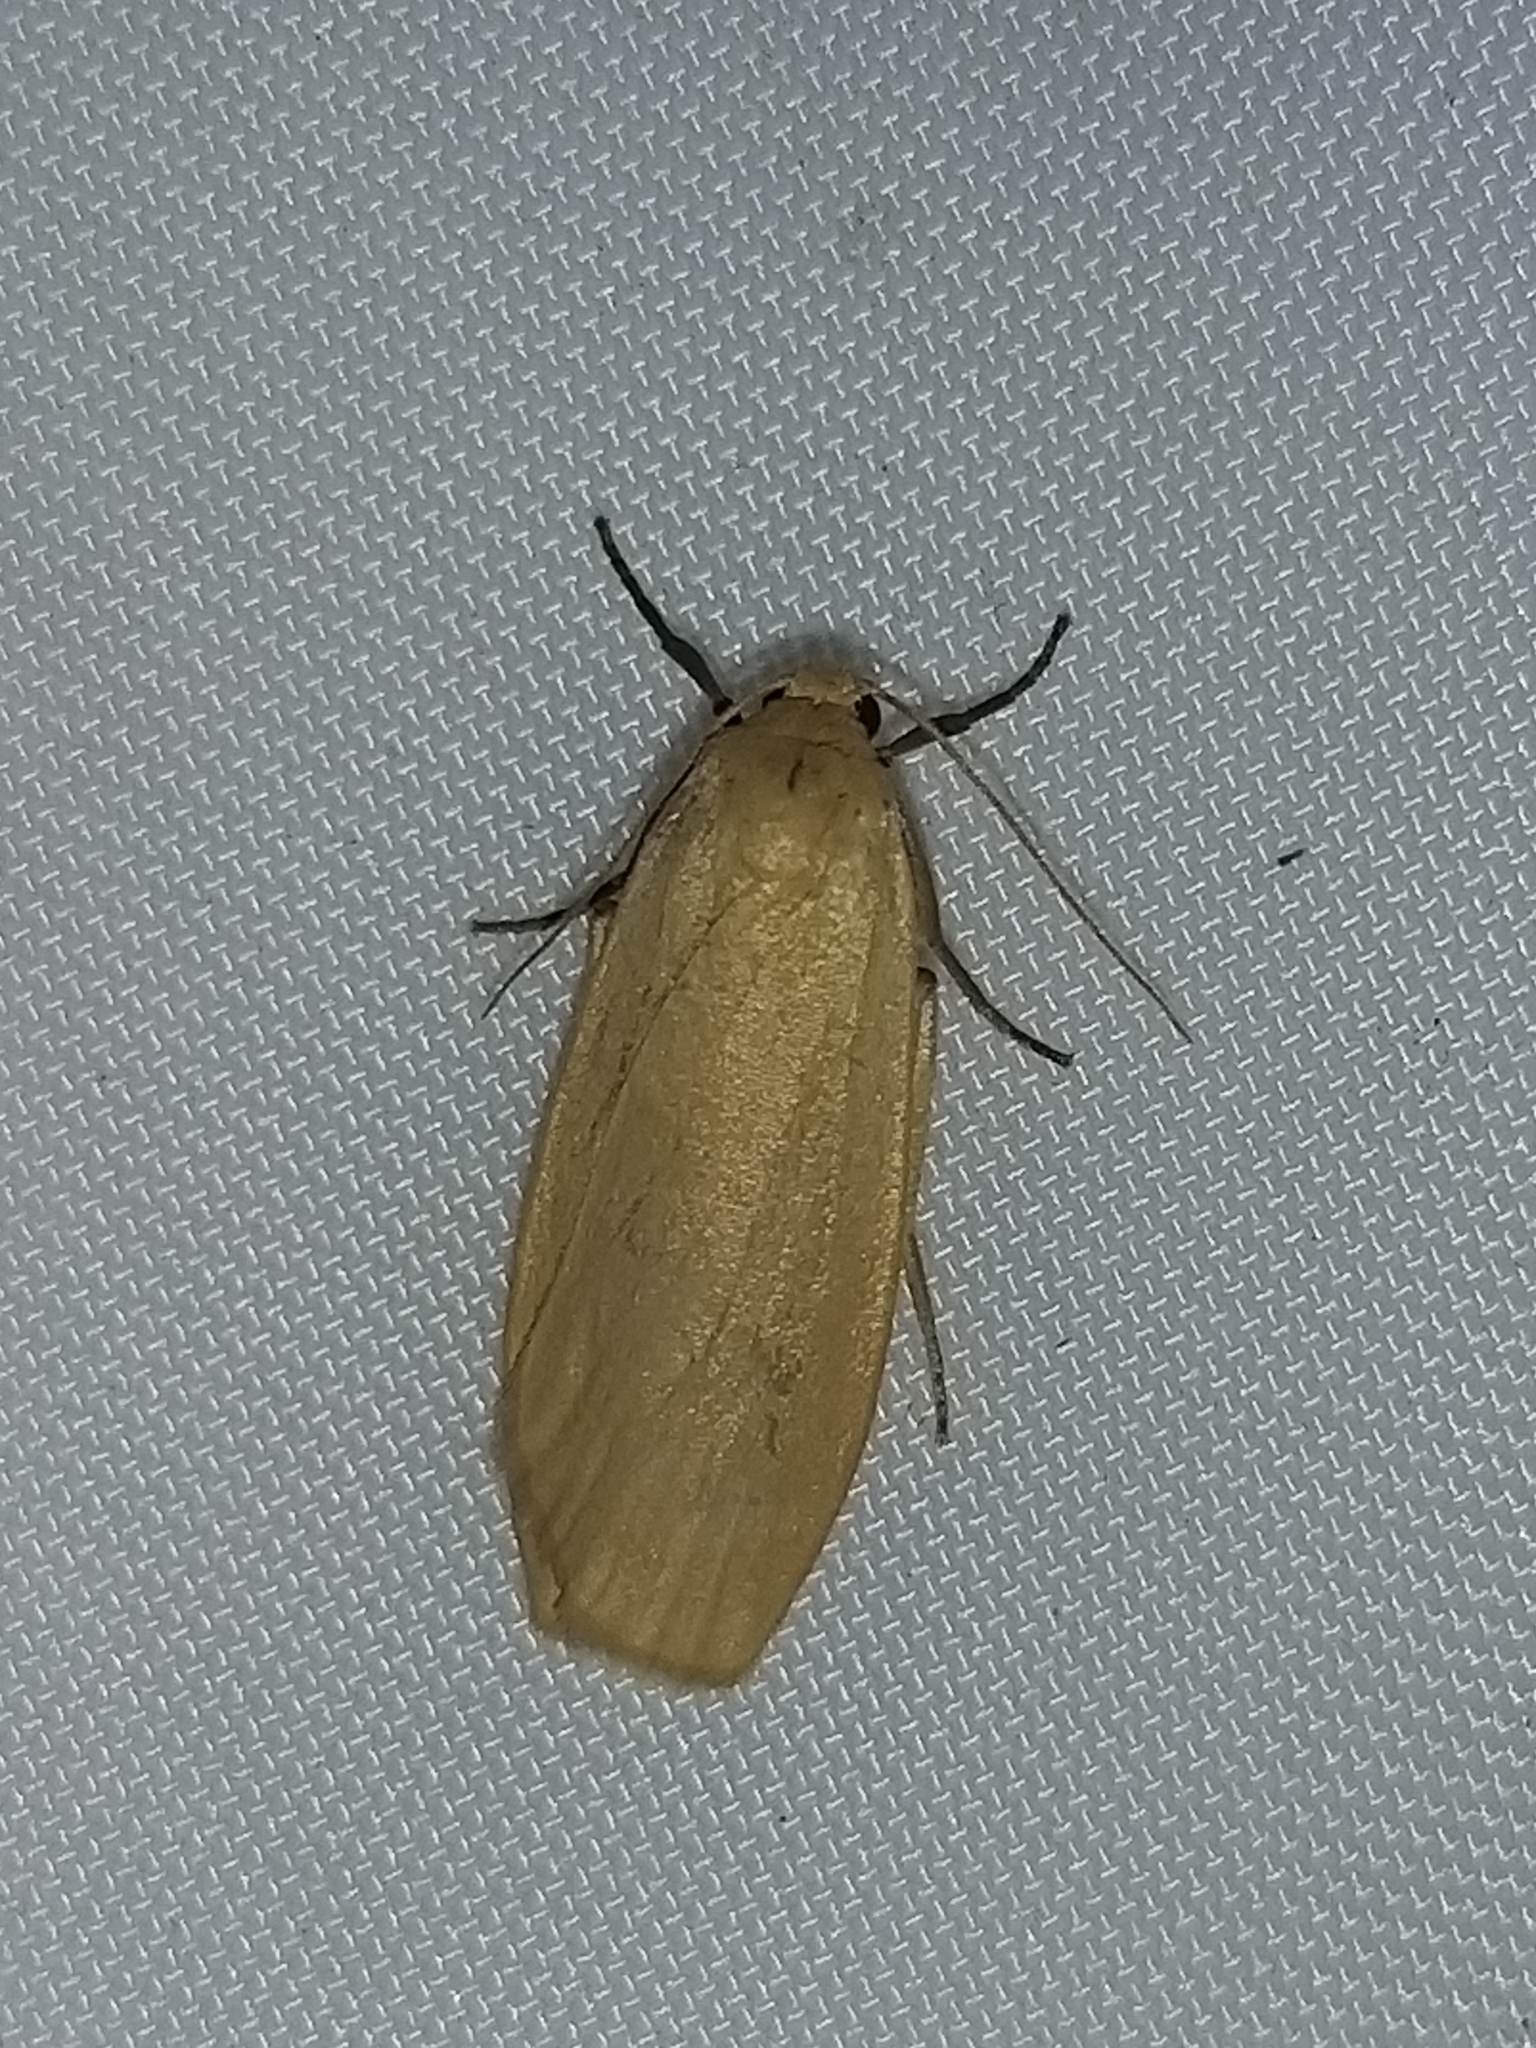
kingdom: Animalia
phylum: Arthropoda
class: Insecta
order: Lepidoptera
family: Erebidae
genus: Collita
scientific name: Collita griseola
